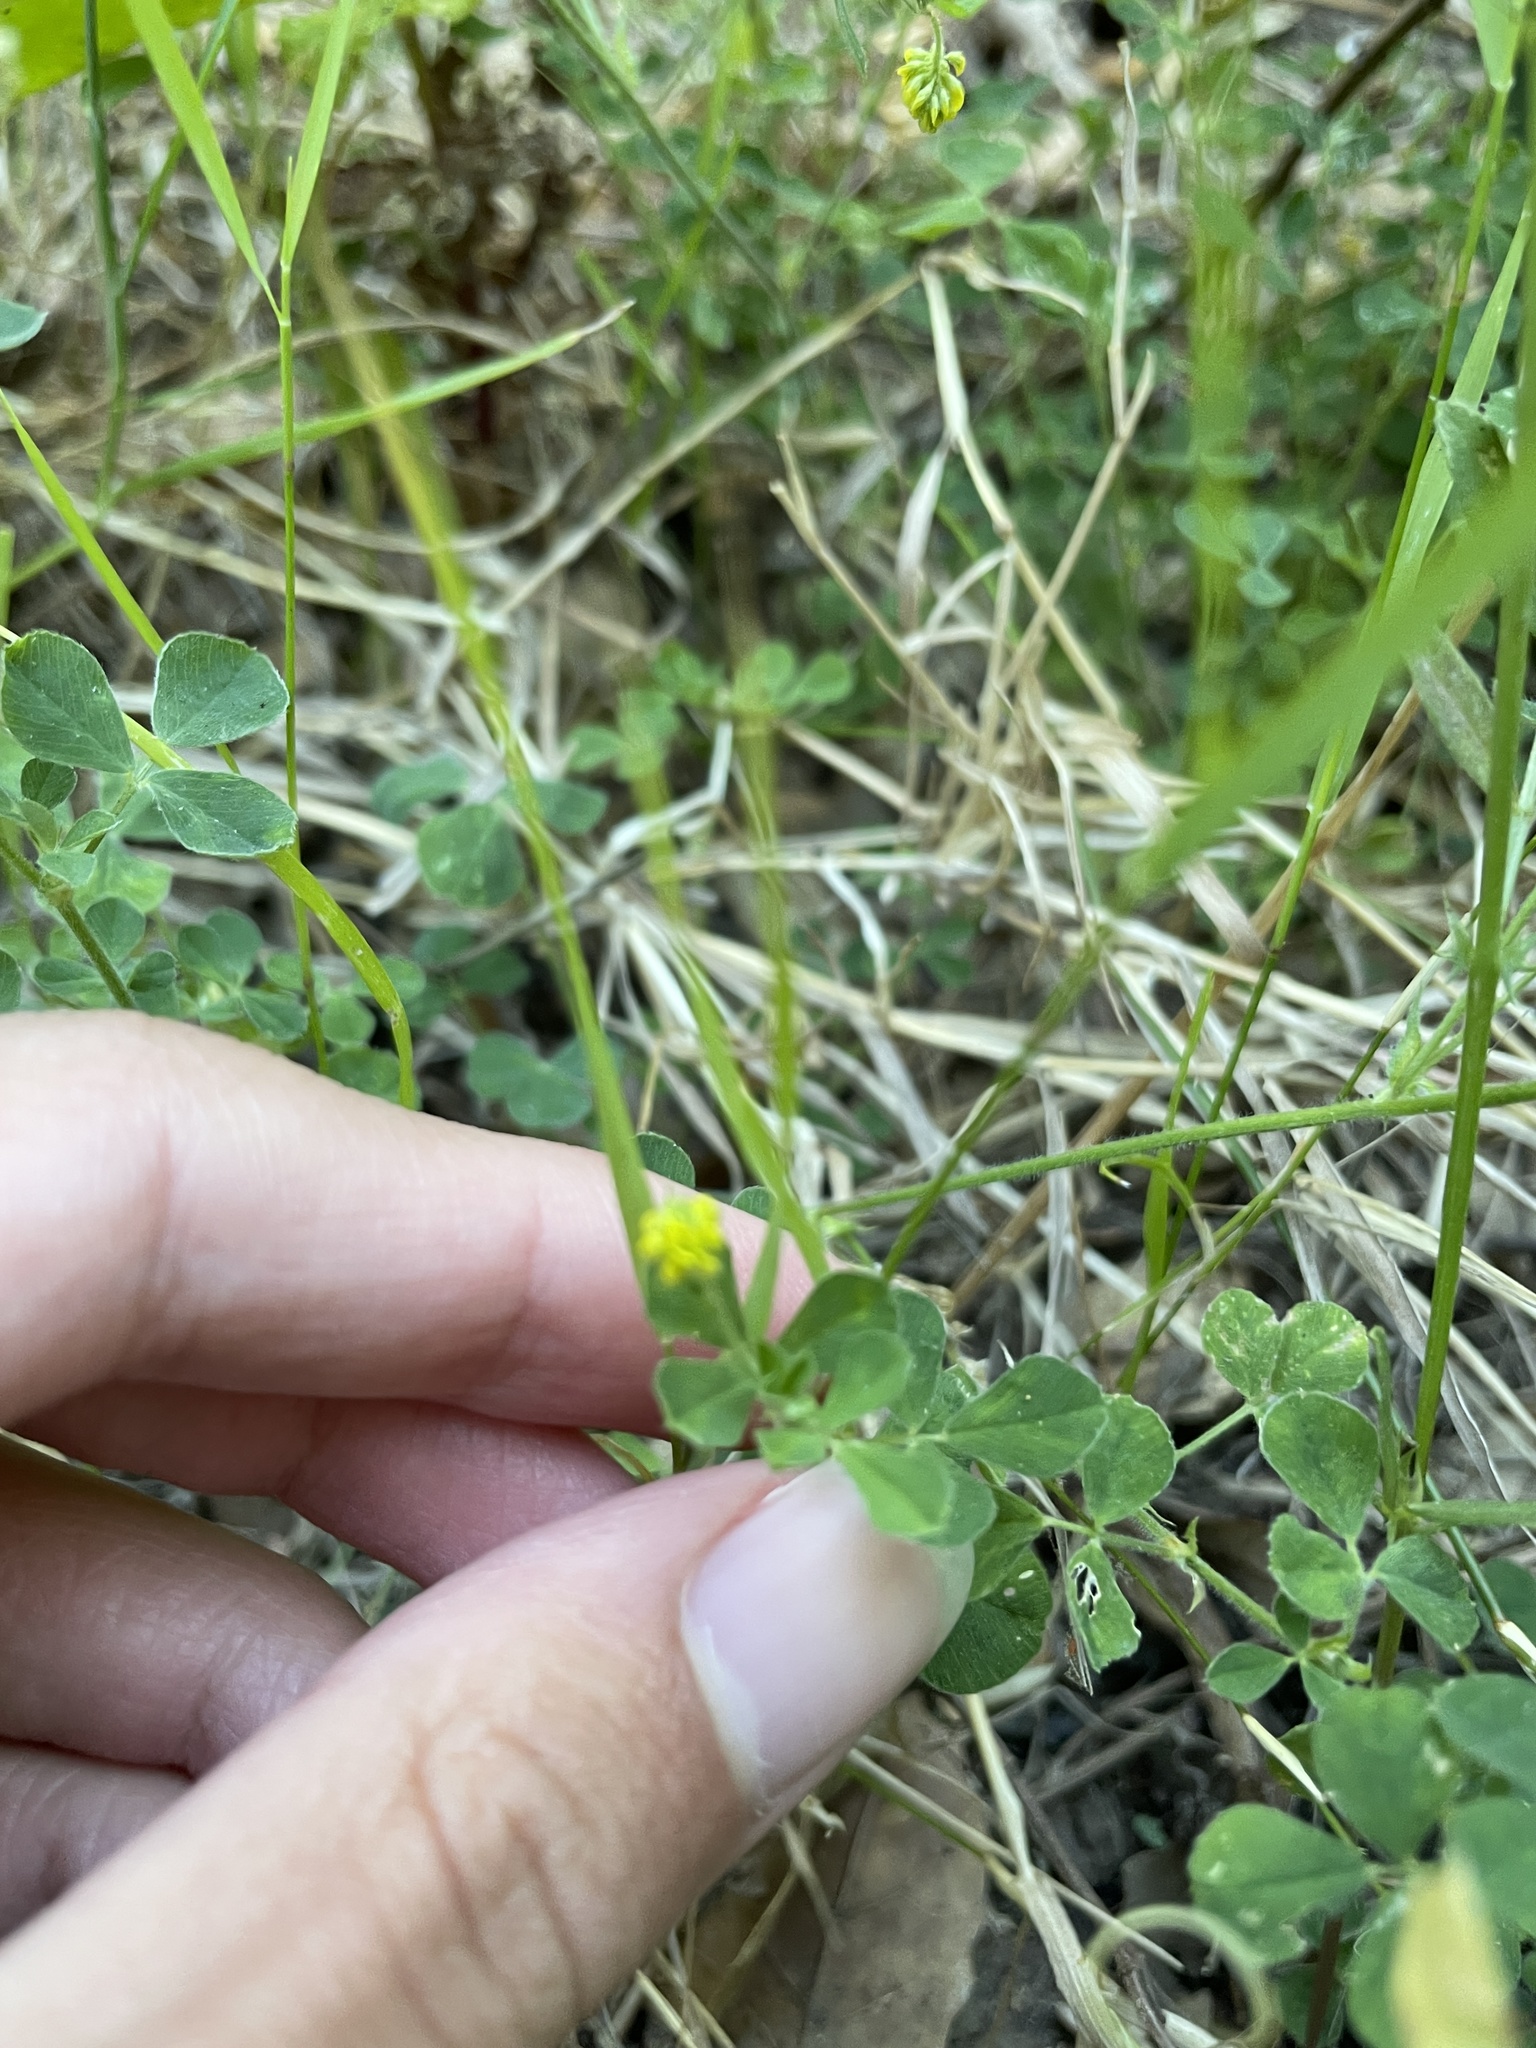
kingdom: Plantae
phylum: Tracheophyta
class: Magnoliopsida
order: Fabales
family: Fabaceae
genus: Medicago
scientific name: Medicago lupulina
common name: Black medick
